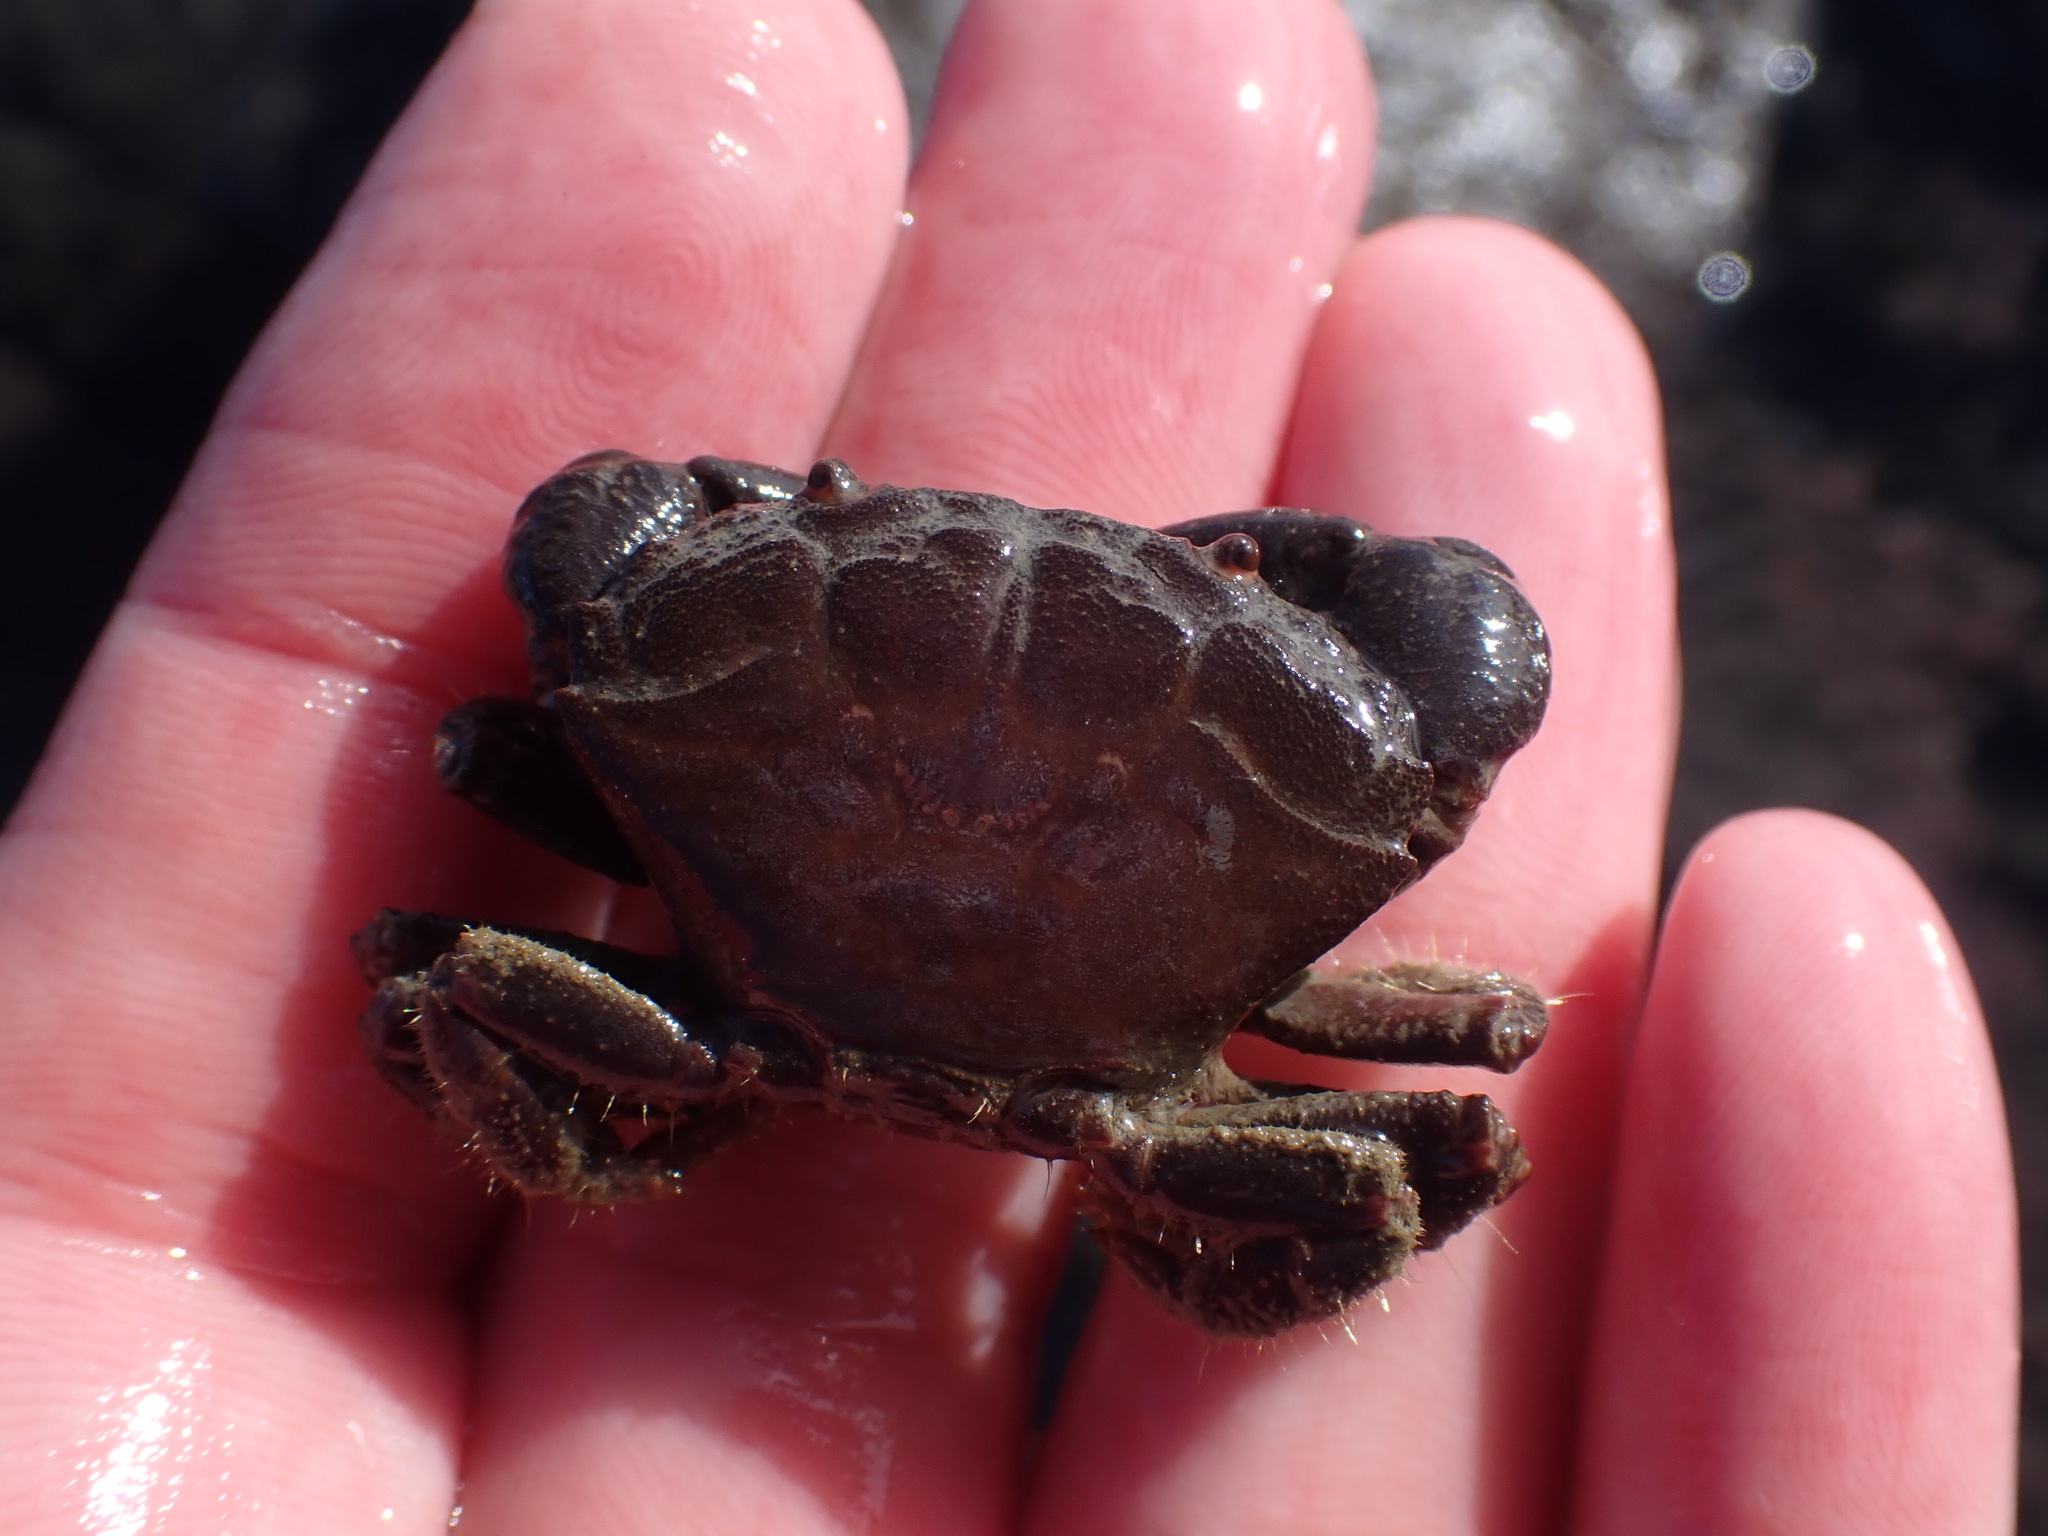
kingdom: Animalia
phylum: Arthropoda
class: Malacostraca
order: Decapoda
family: Oziidae
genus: Ozius
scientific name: Ozius deplanatus
